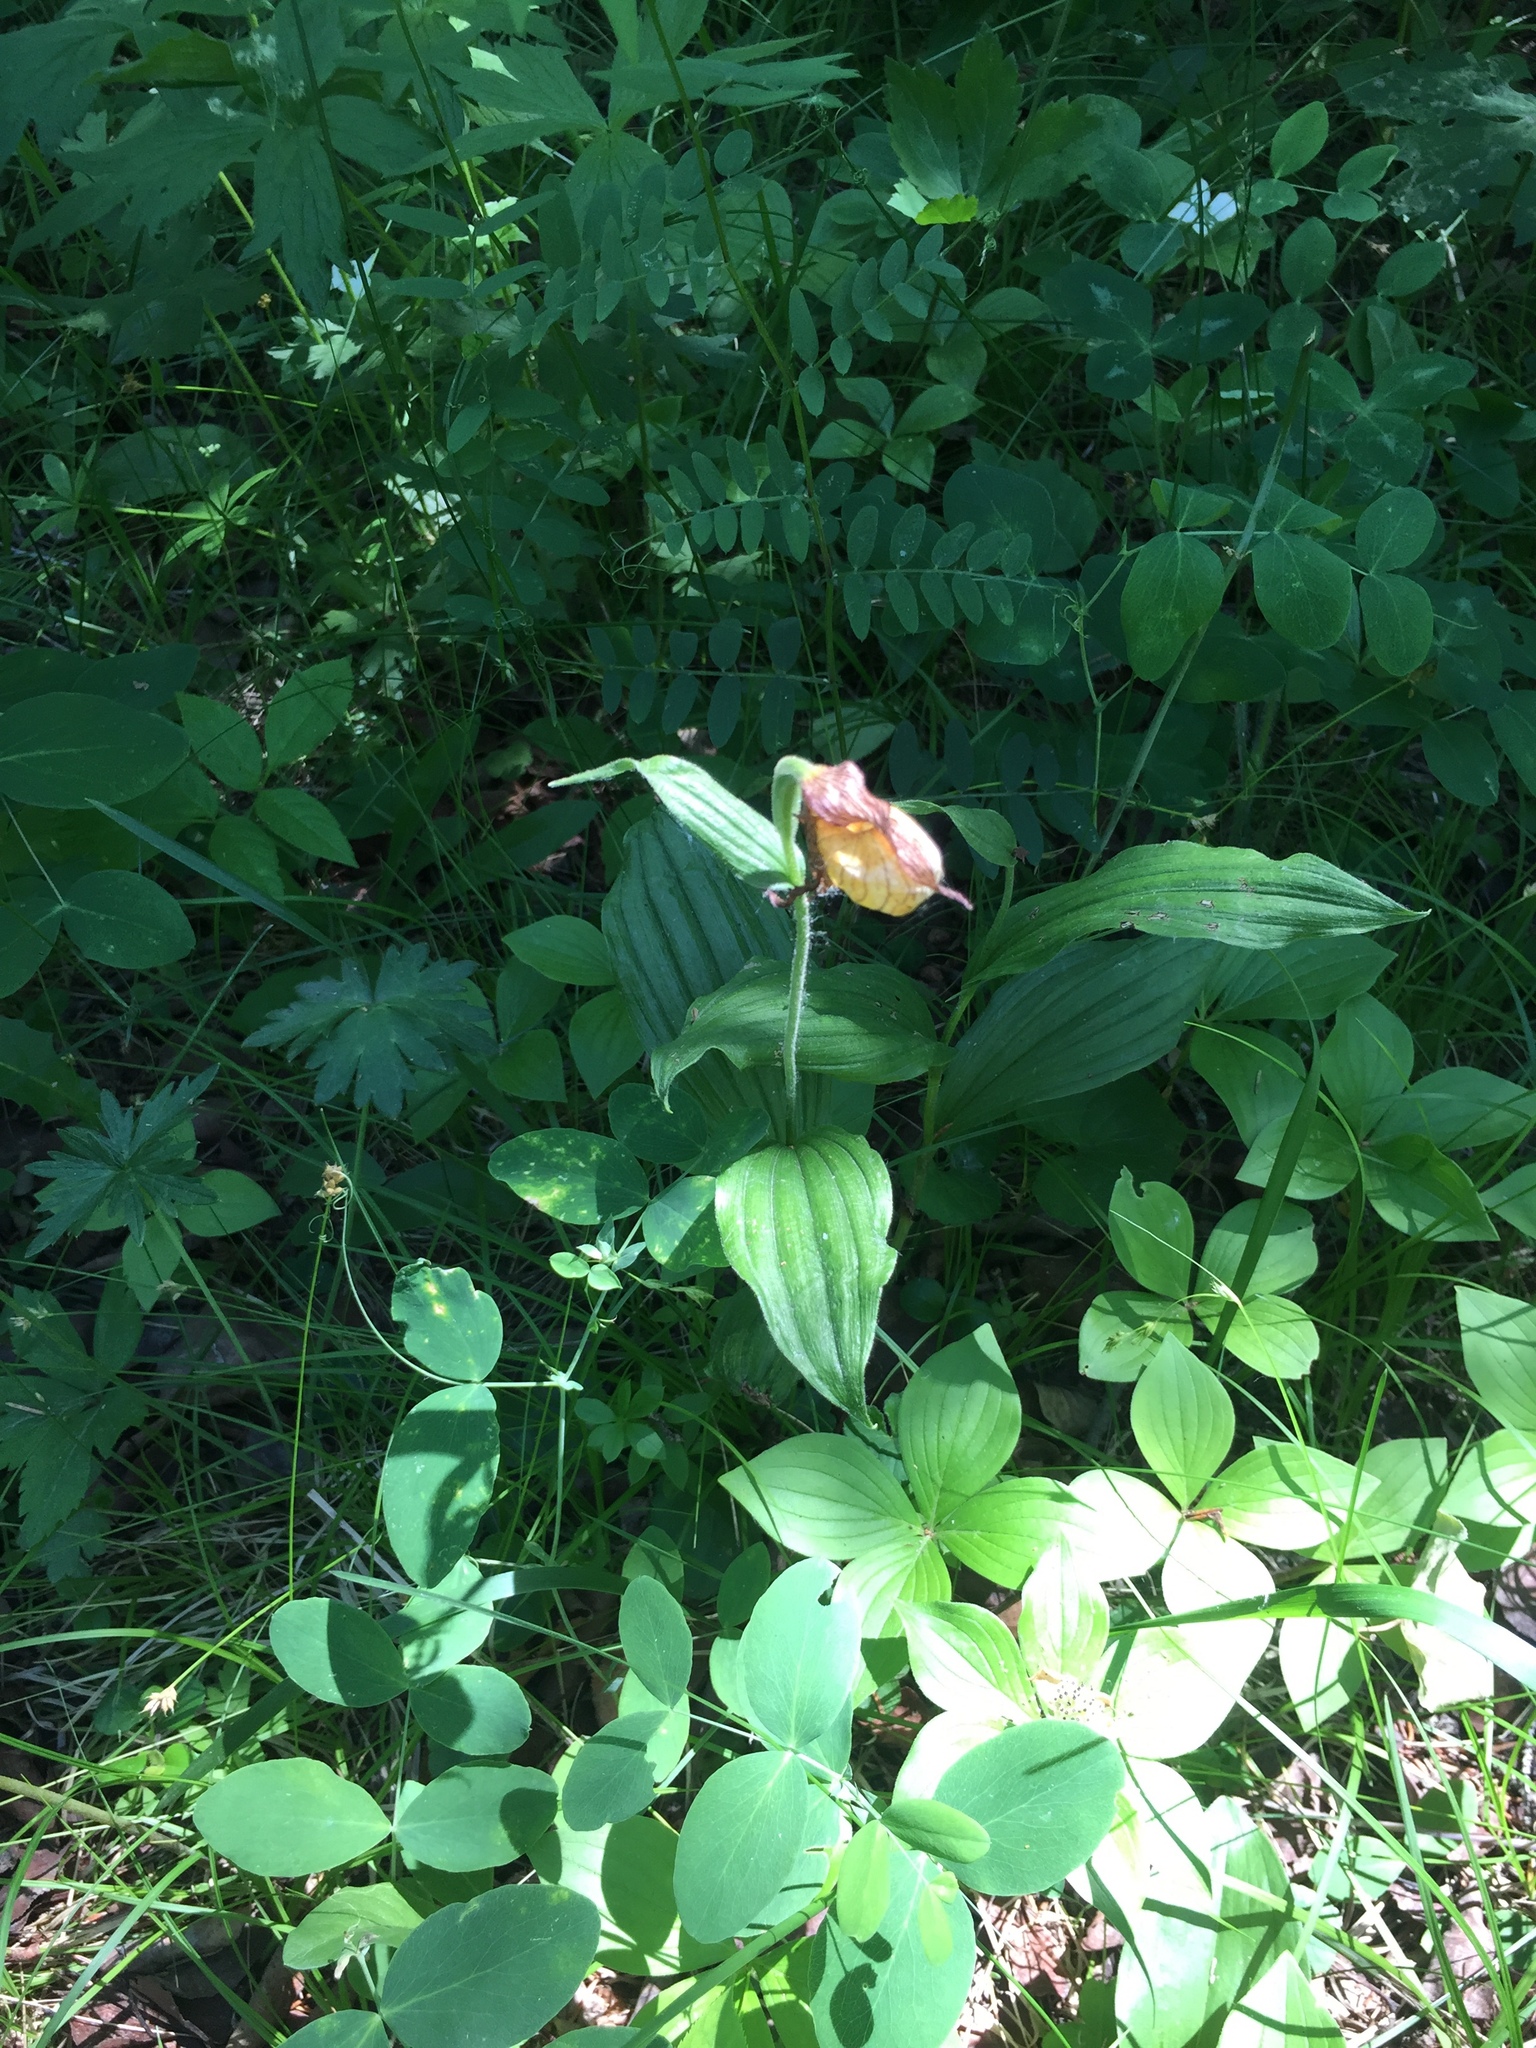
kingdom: Plantae
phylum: Tracheophyta
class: Liliopsida
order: Asparagales
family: Orchidaceae
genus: Cypripedium
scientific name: Cypripedium parviflorum
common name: American yellow lady's-slipper
